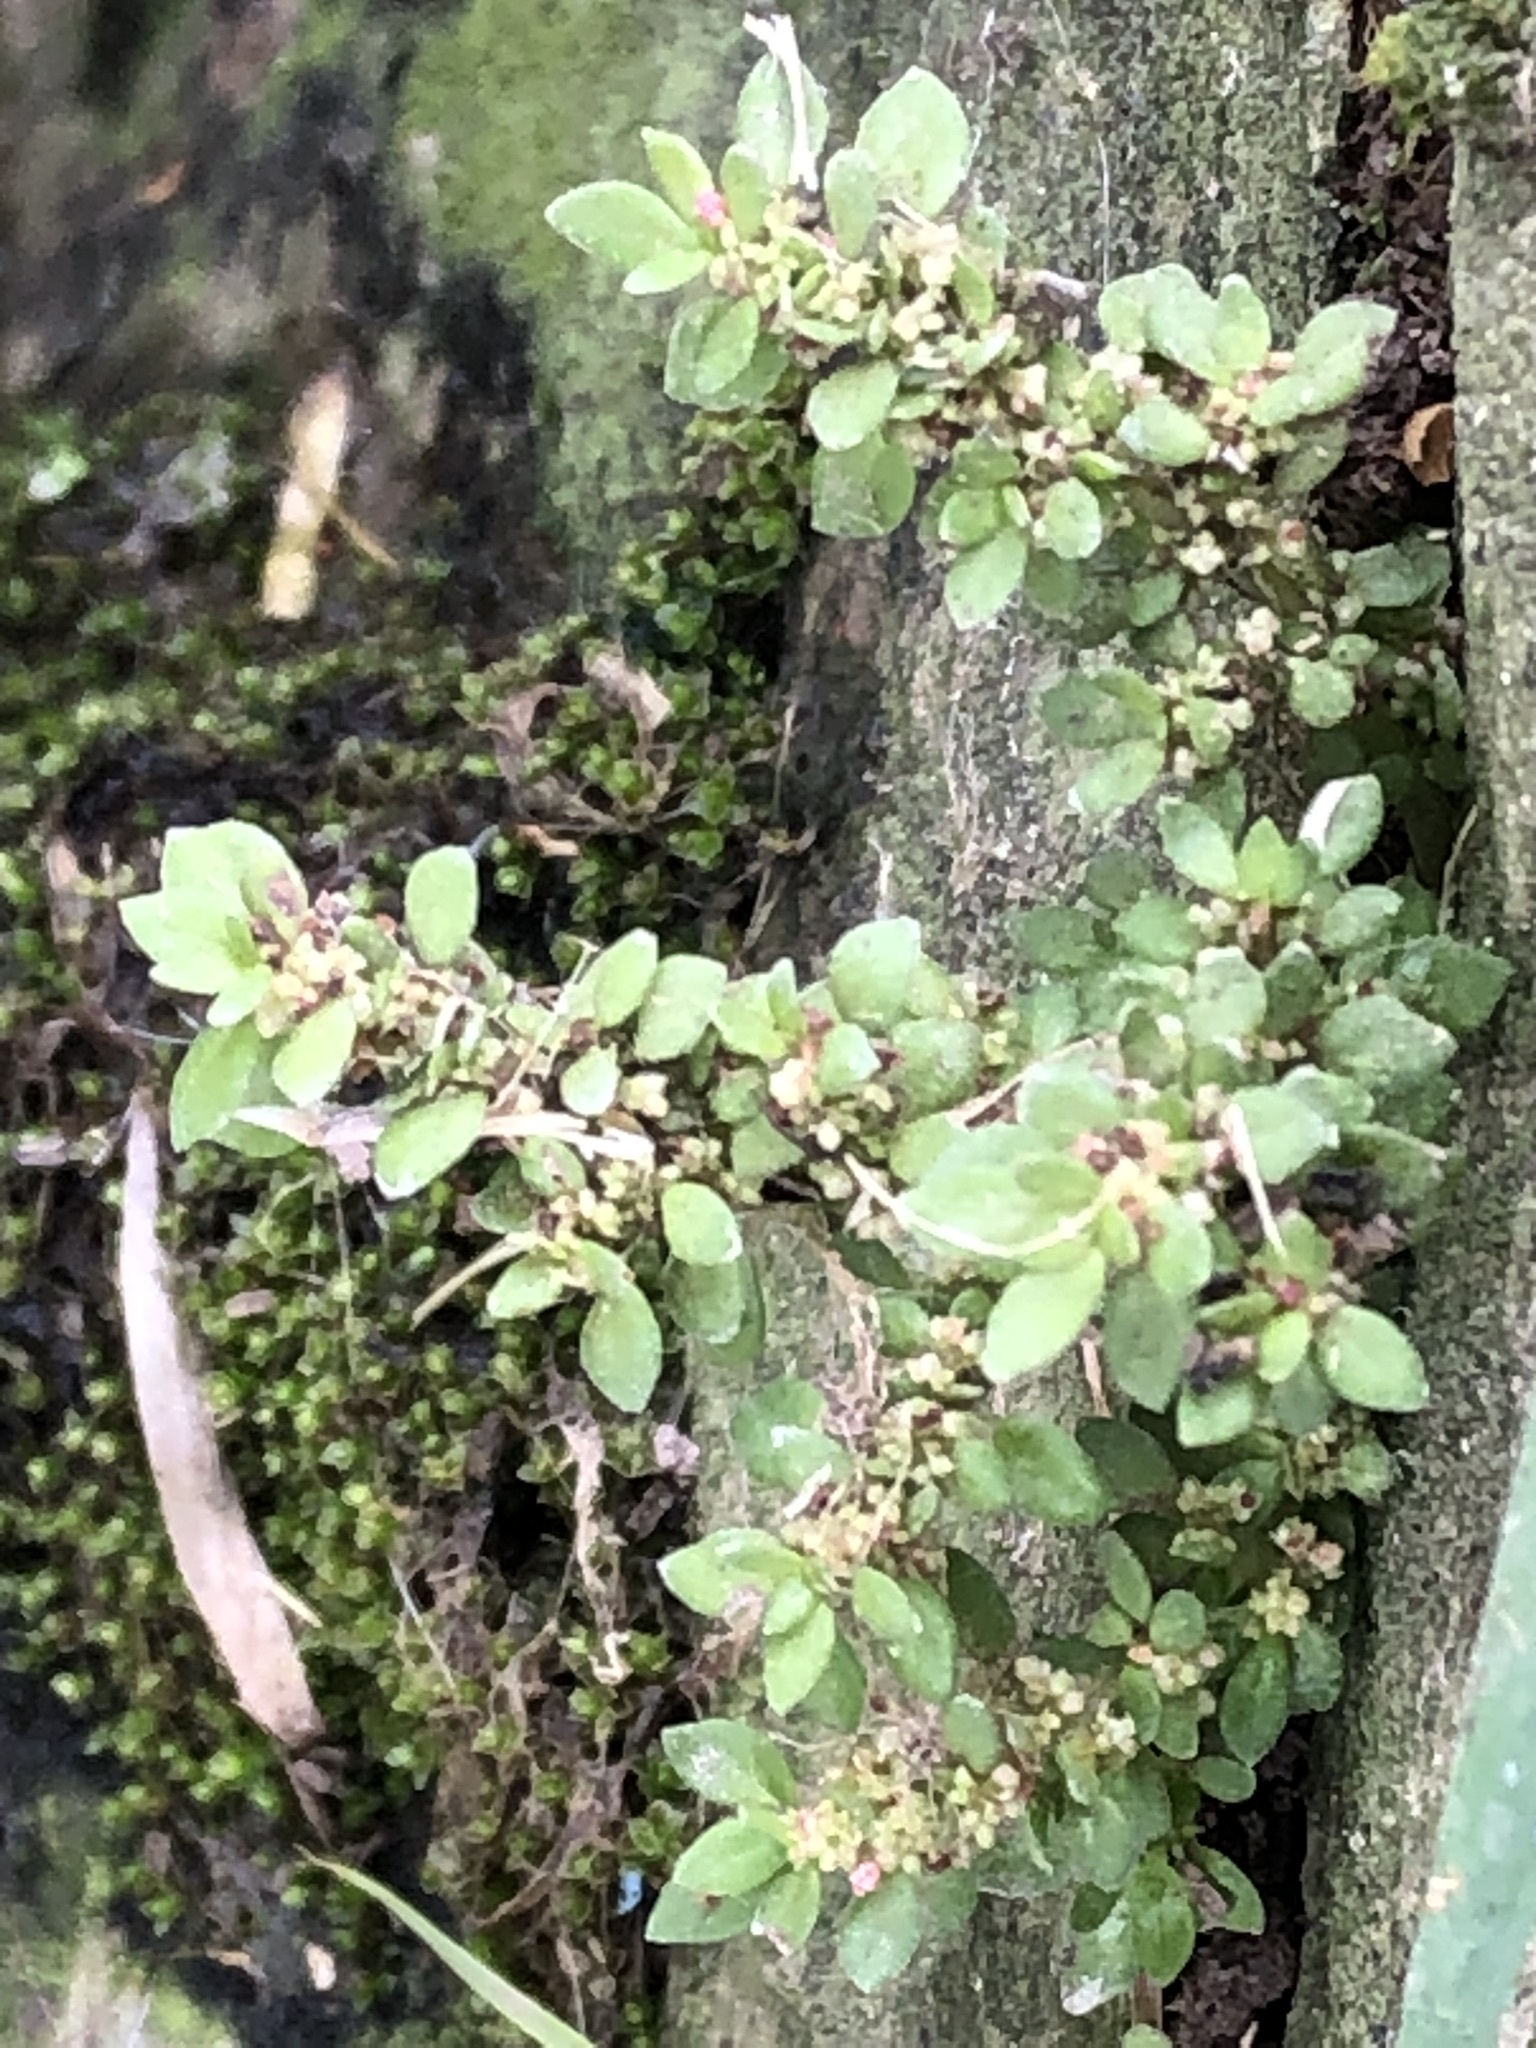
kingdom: Plantae
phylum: Tracheophyta
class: Magnoliopsida
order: Rosales
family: Urticaceae
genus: Pilea
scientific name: Pilea microphylla
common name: Artillery-plant
